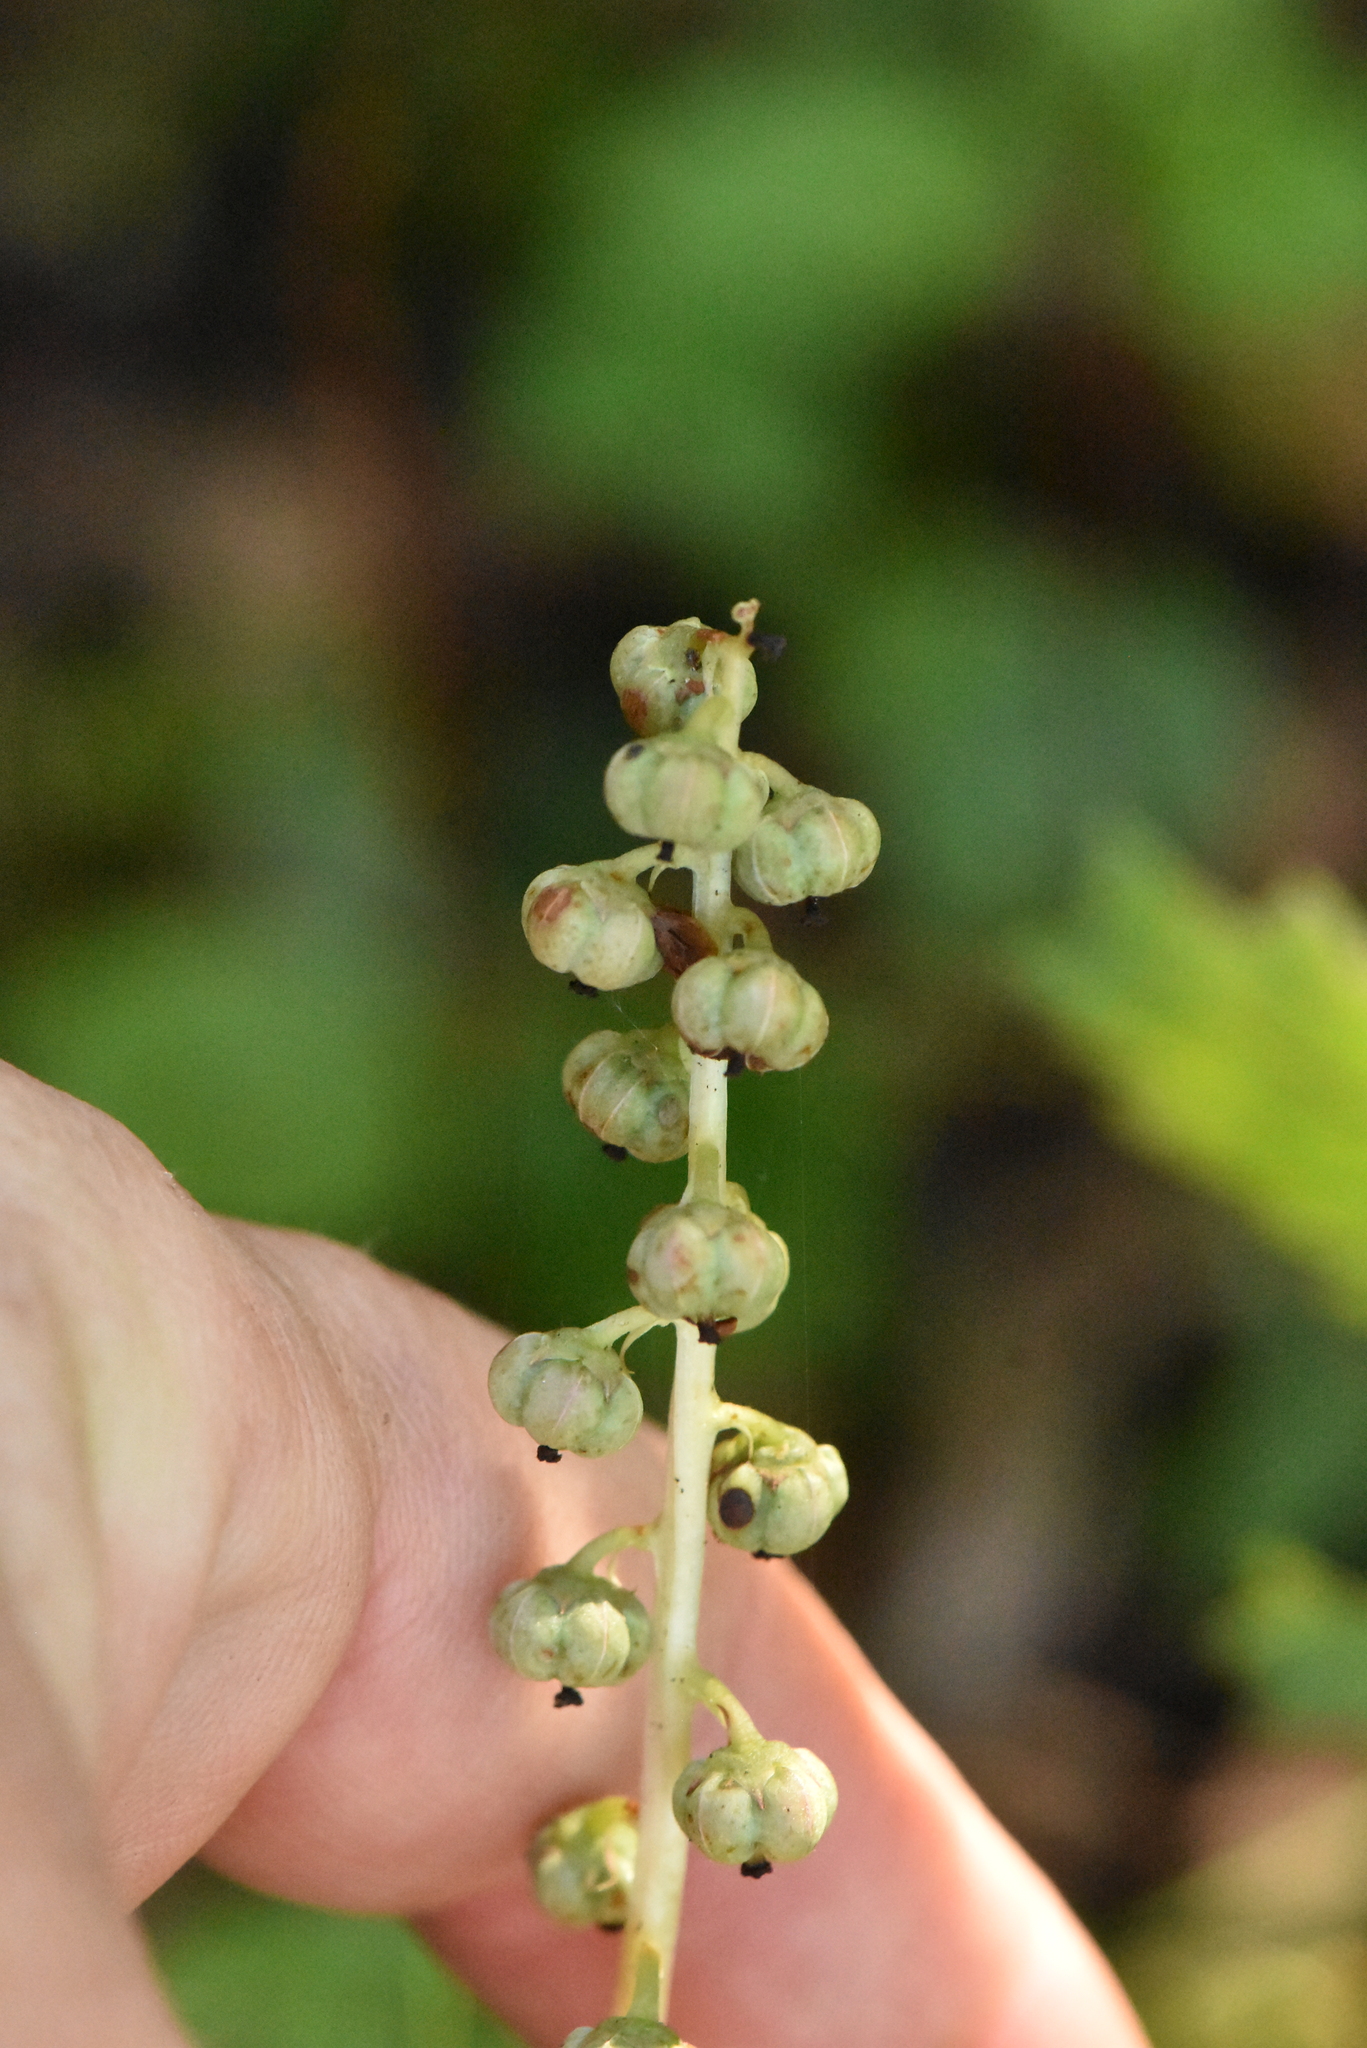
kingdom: Plantae
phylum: Tracheophyta
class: Magnoliopsida
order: Ericales
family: Ericaceae
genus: Pyrola
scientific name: Pyrola minor
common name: Common wintergreen
